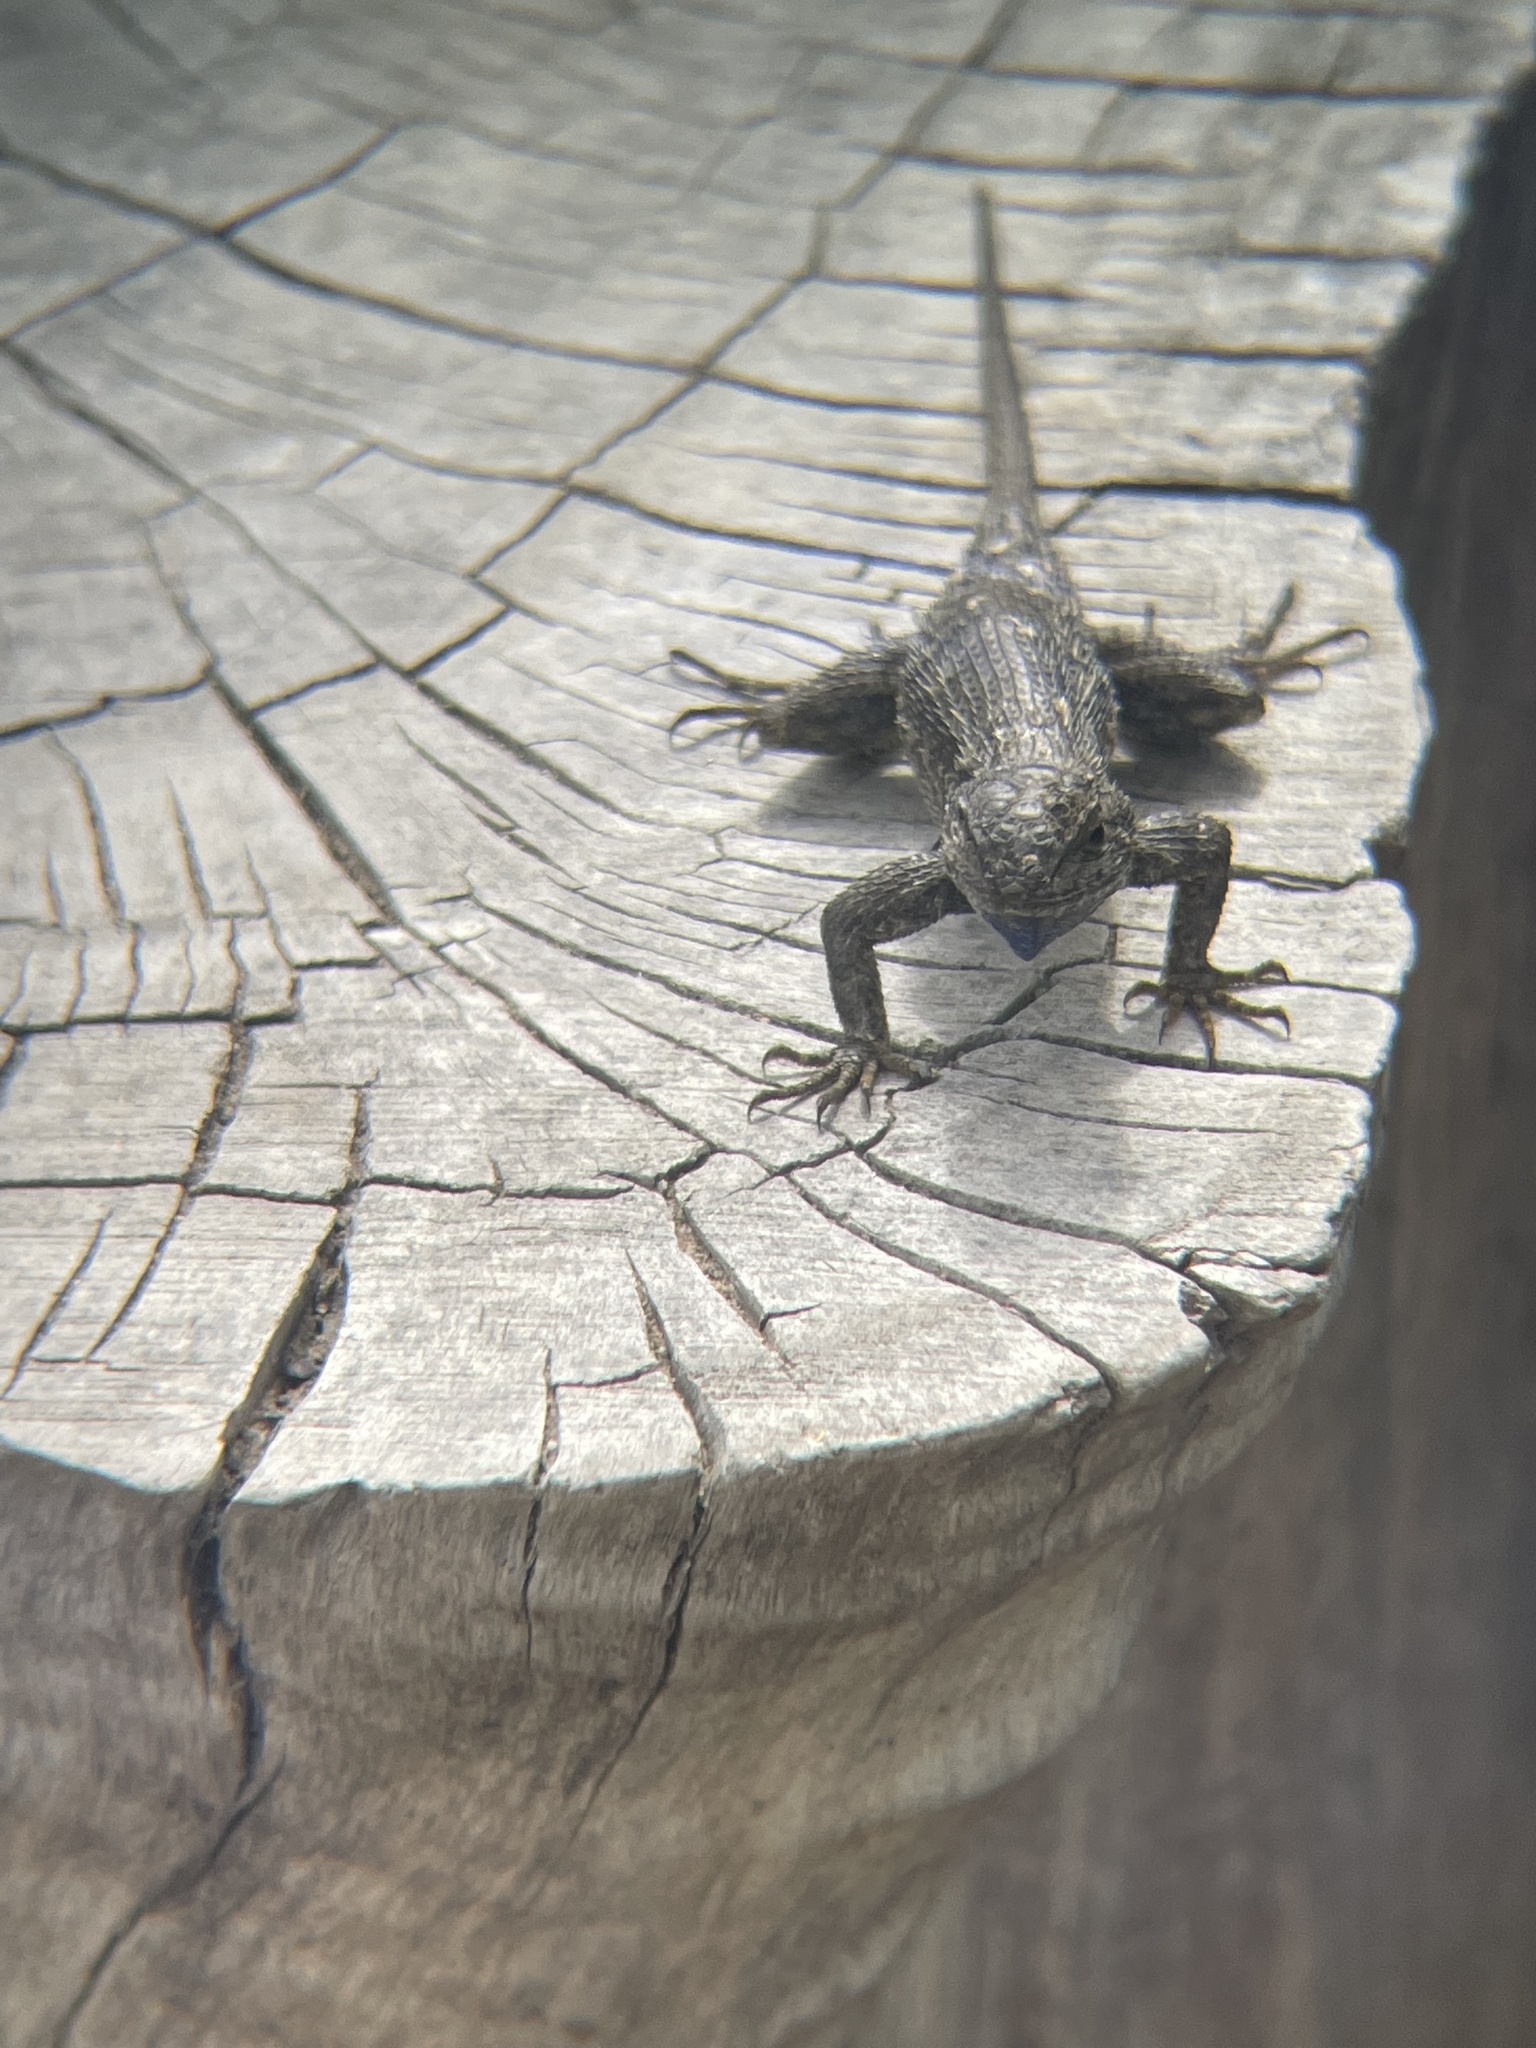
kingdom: Animalia
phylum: Chordata
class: Squamata
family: Phrynosomatidae
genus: Sceloporus
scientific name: Sceloporus occidentalis
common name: Western fence lizard
